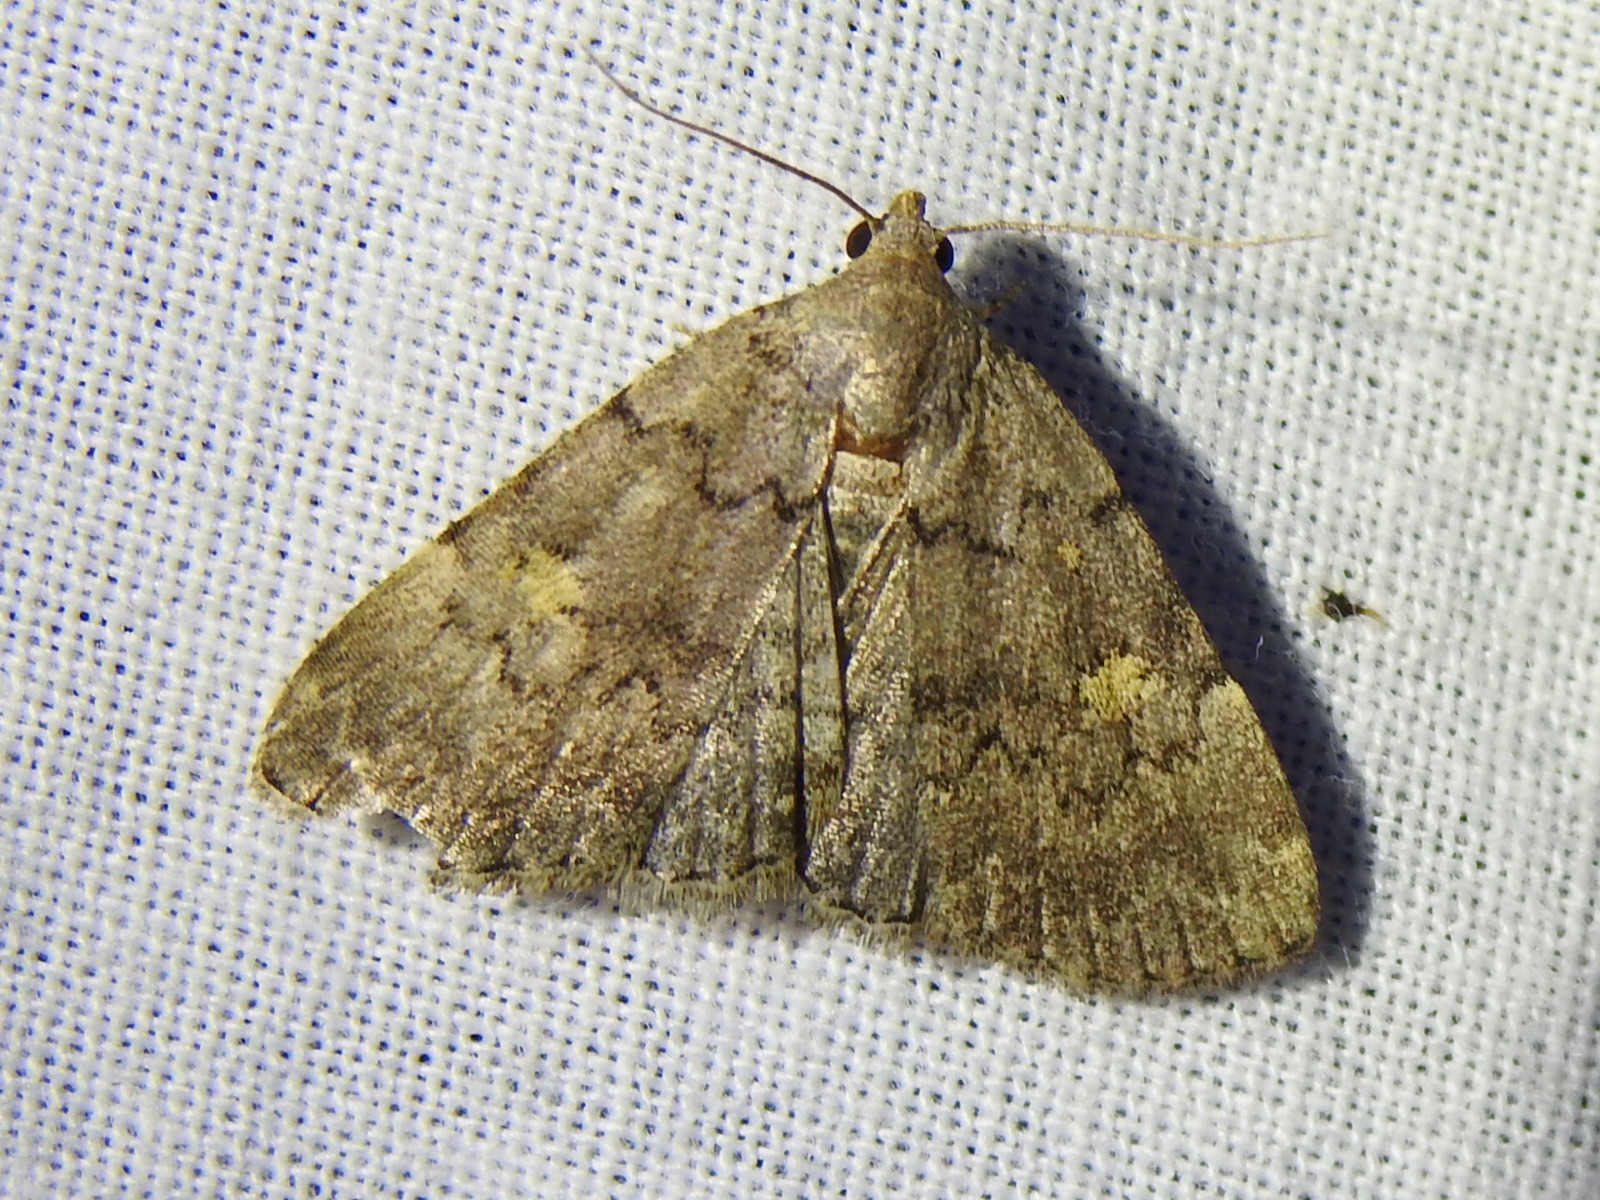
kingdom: Animalia
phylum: Arthropoda
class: Insecta
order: Lepidoptera
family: Erebidae
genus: Idia
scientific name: Idia aemula
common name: Common idia moth
